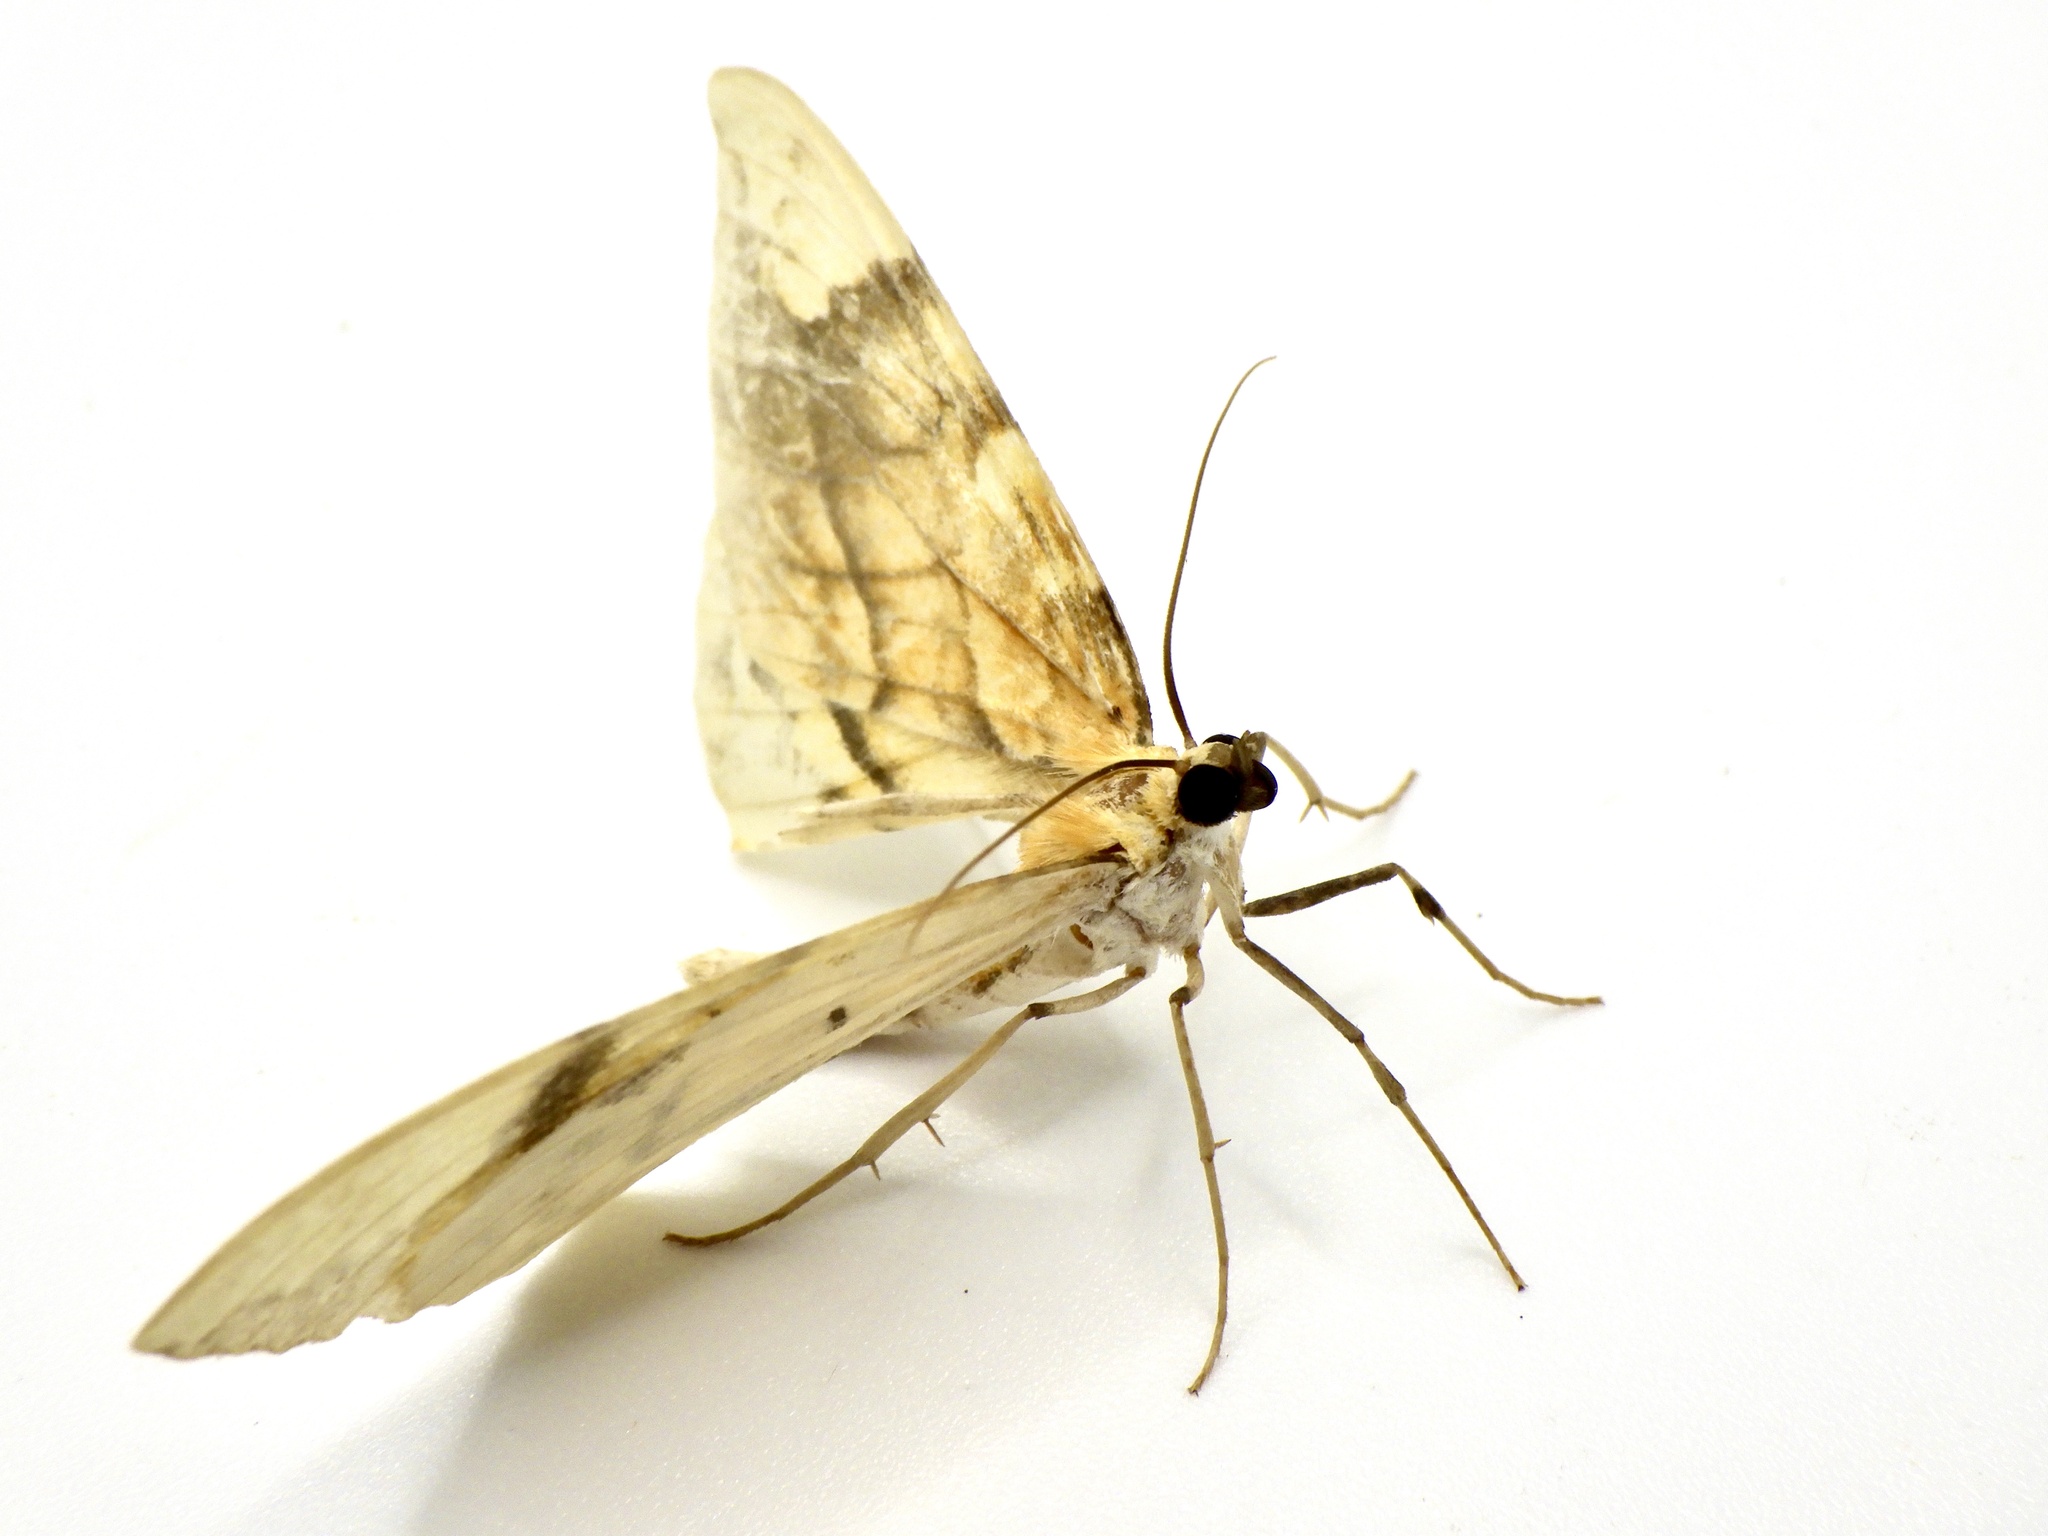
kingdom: Animalia
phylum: Arthropoda
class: Insecta
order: Lepidoptera
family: Geometridae
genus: Gandaritis
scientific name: Gandaritis fixseni
